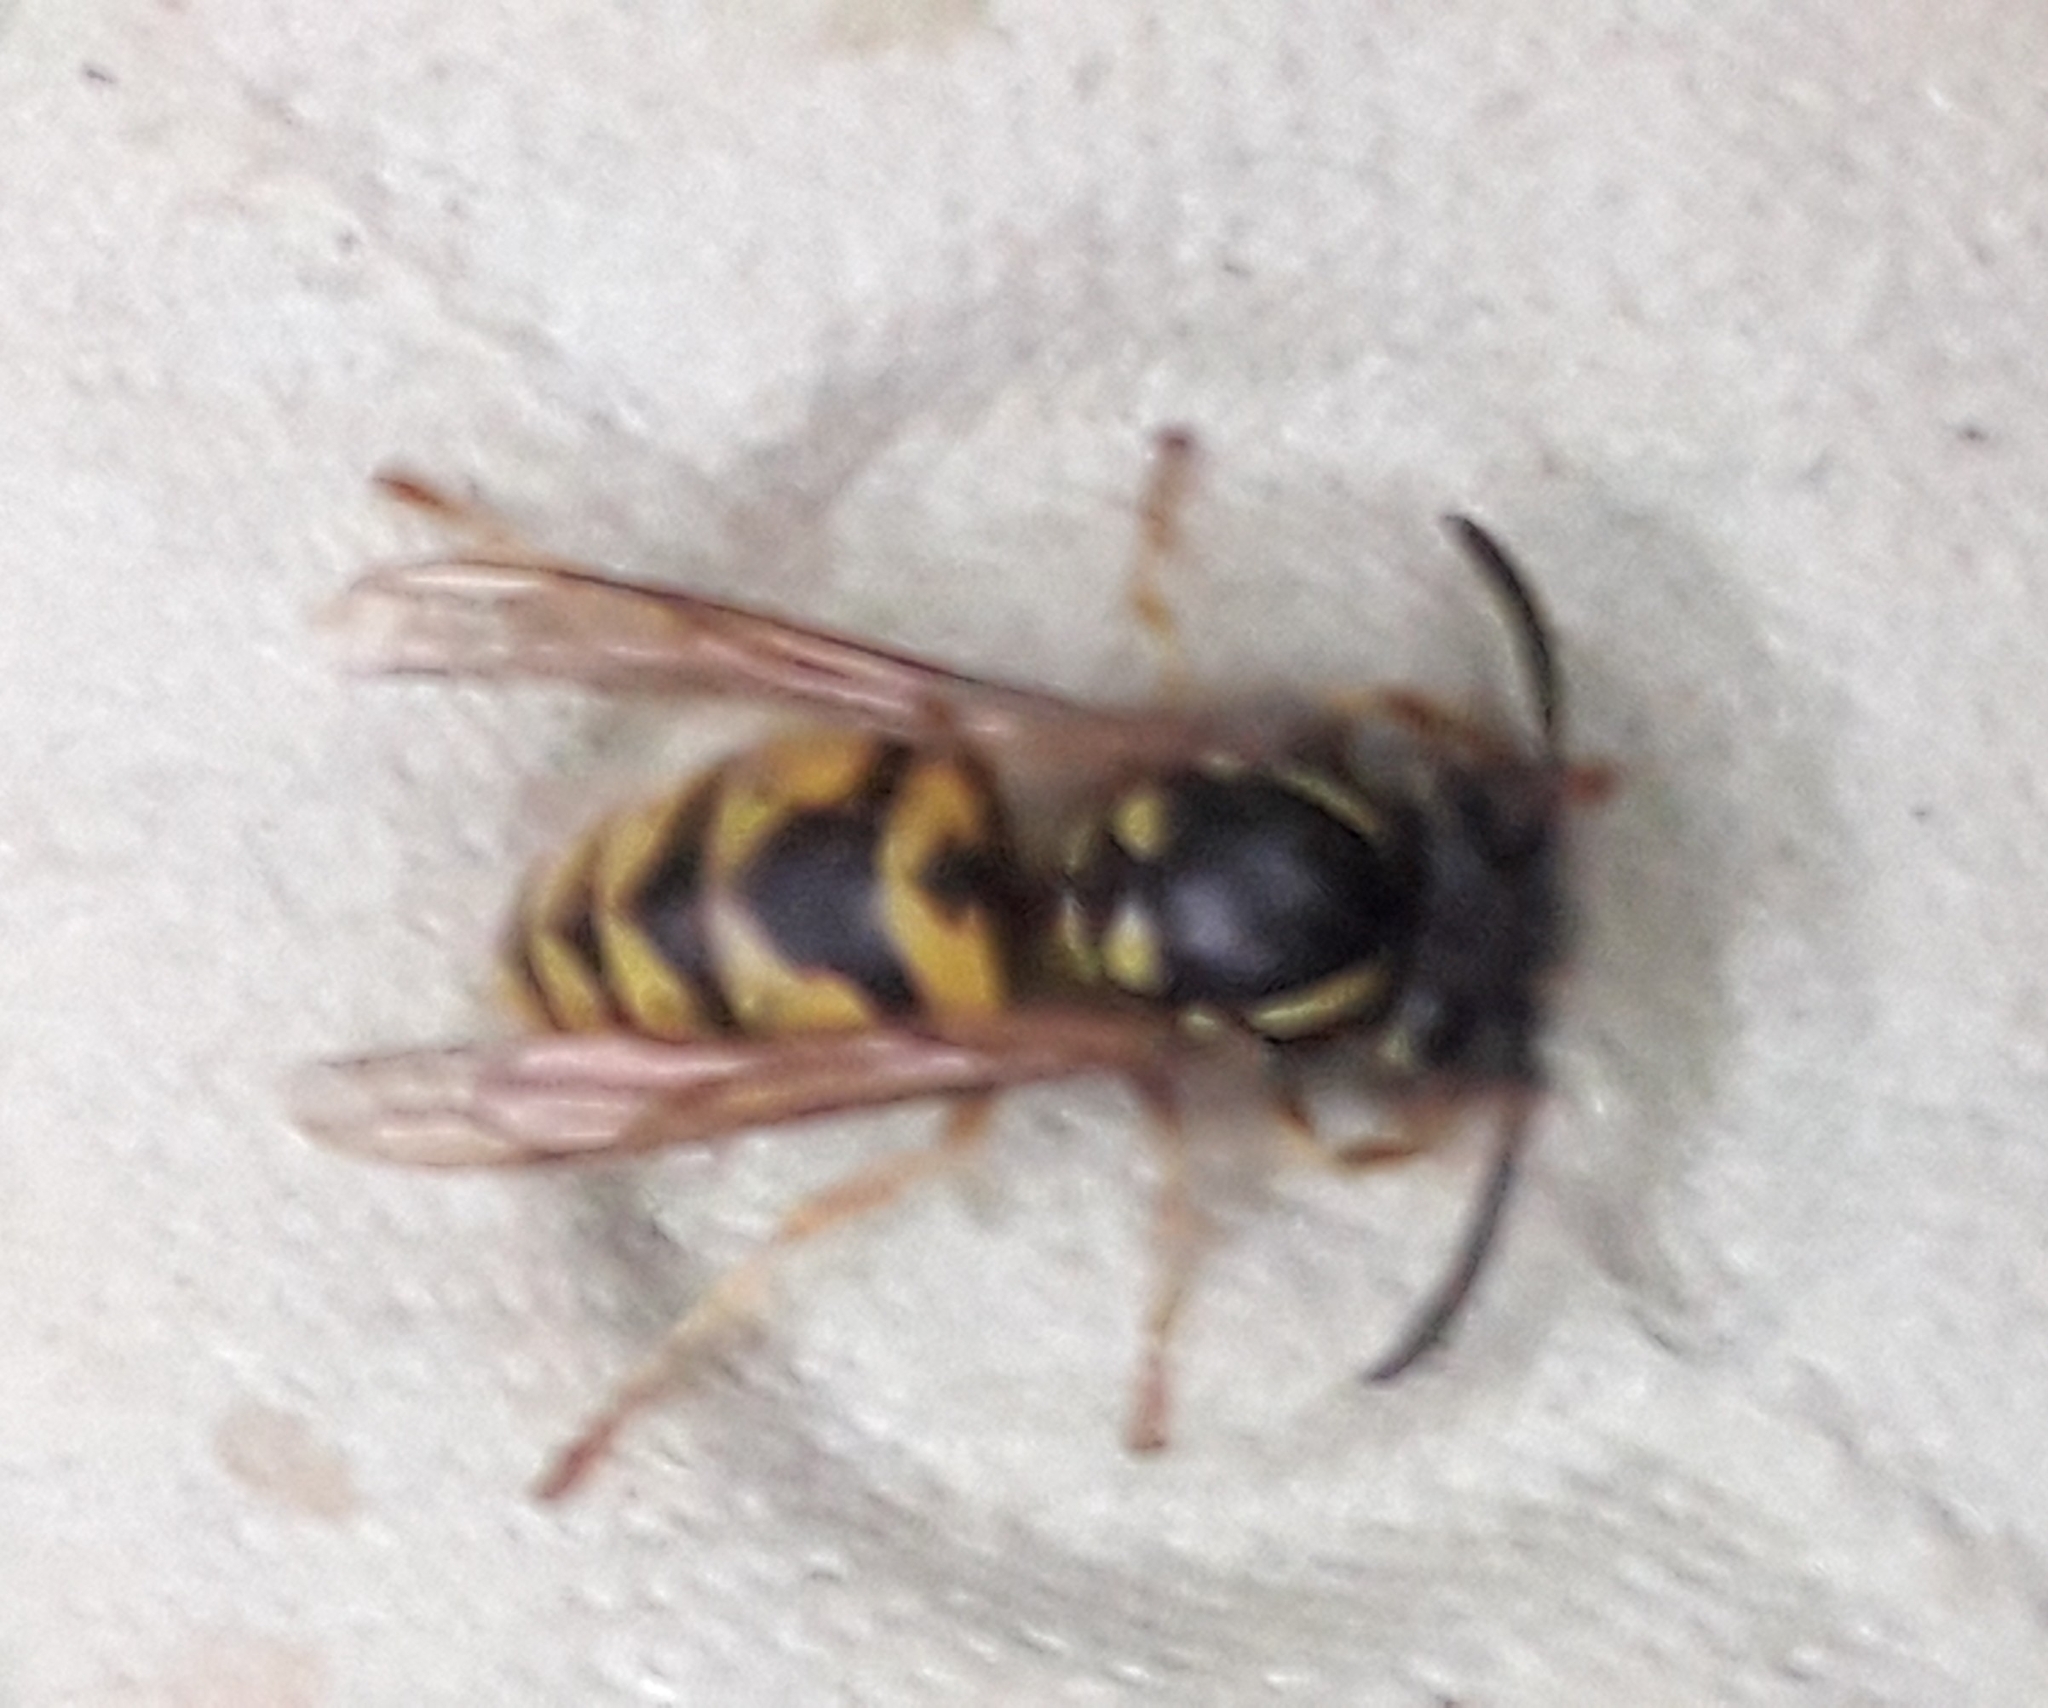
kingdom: Animalia
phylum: Arthropoda
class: Insecta
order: Hymenoptera
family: Vespidae
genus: Vespula
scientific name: Vespula vulgaris
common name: Common wasp
